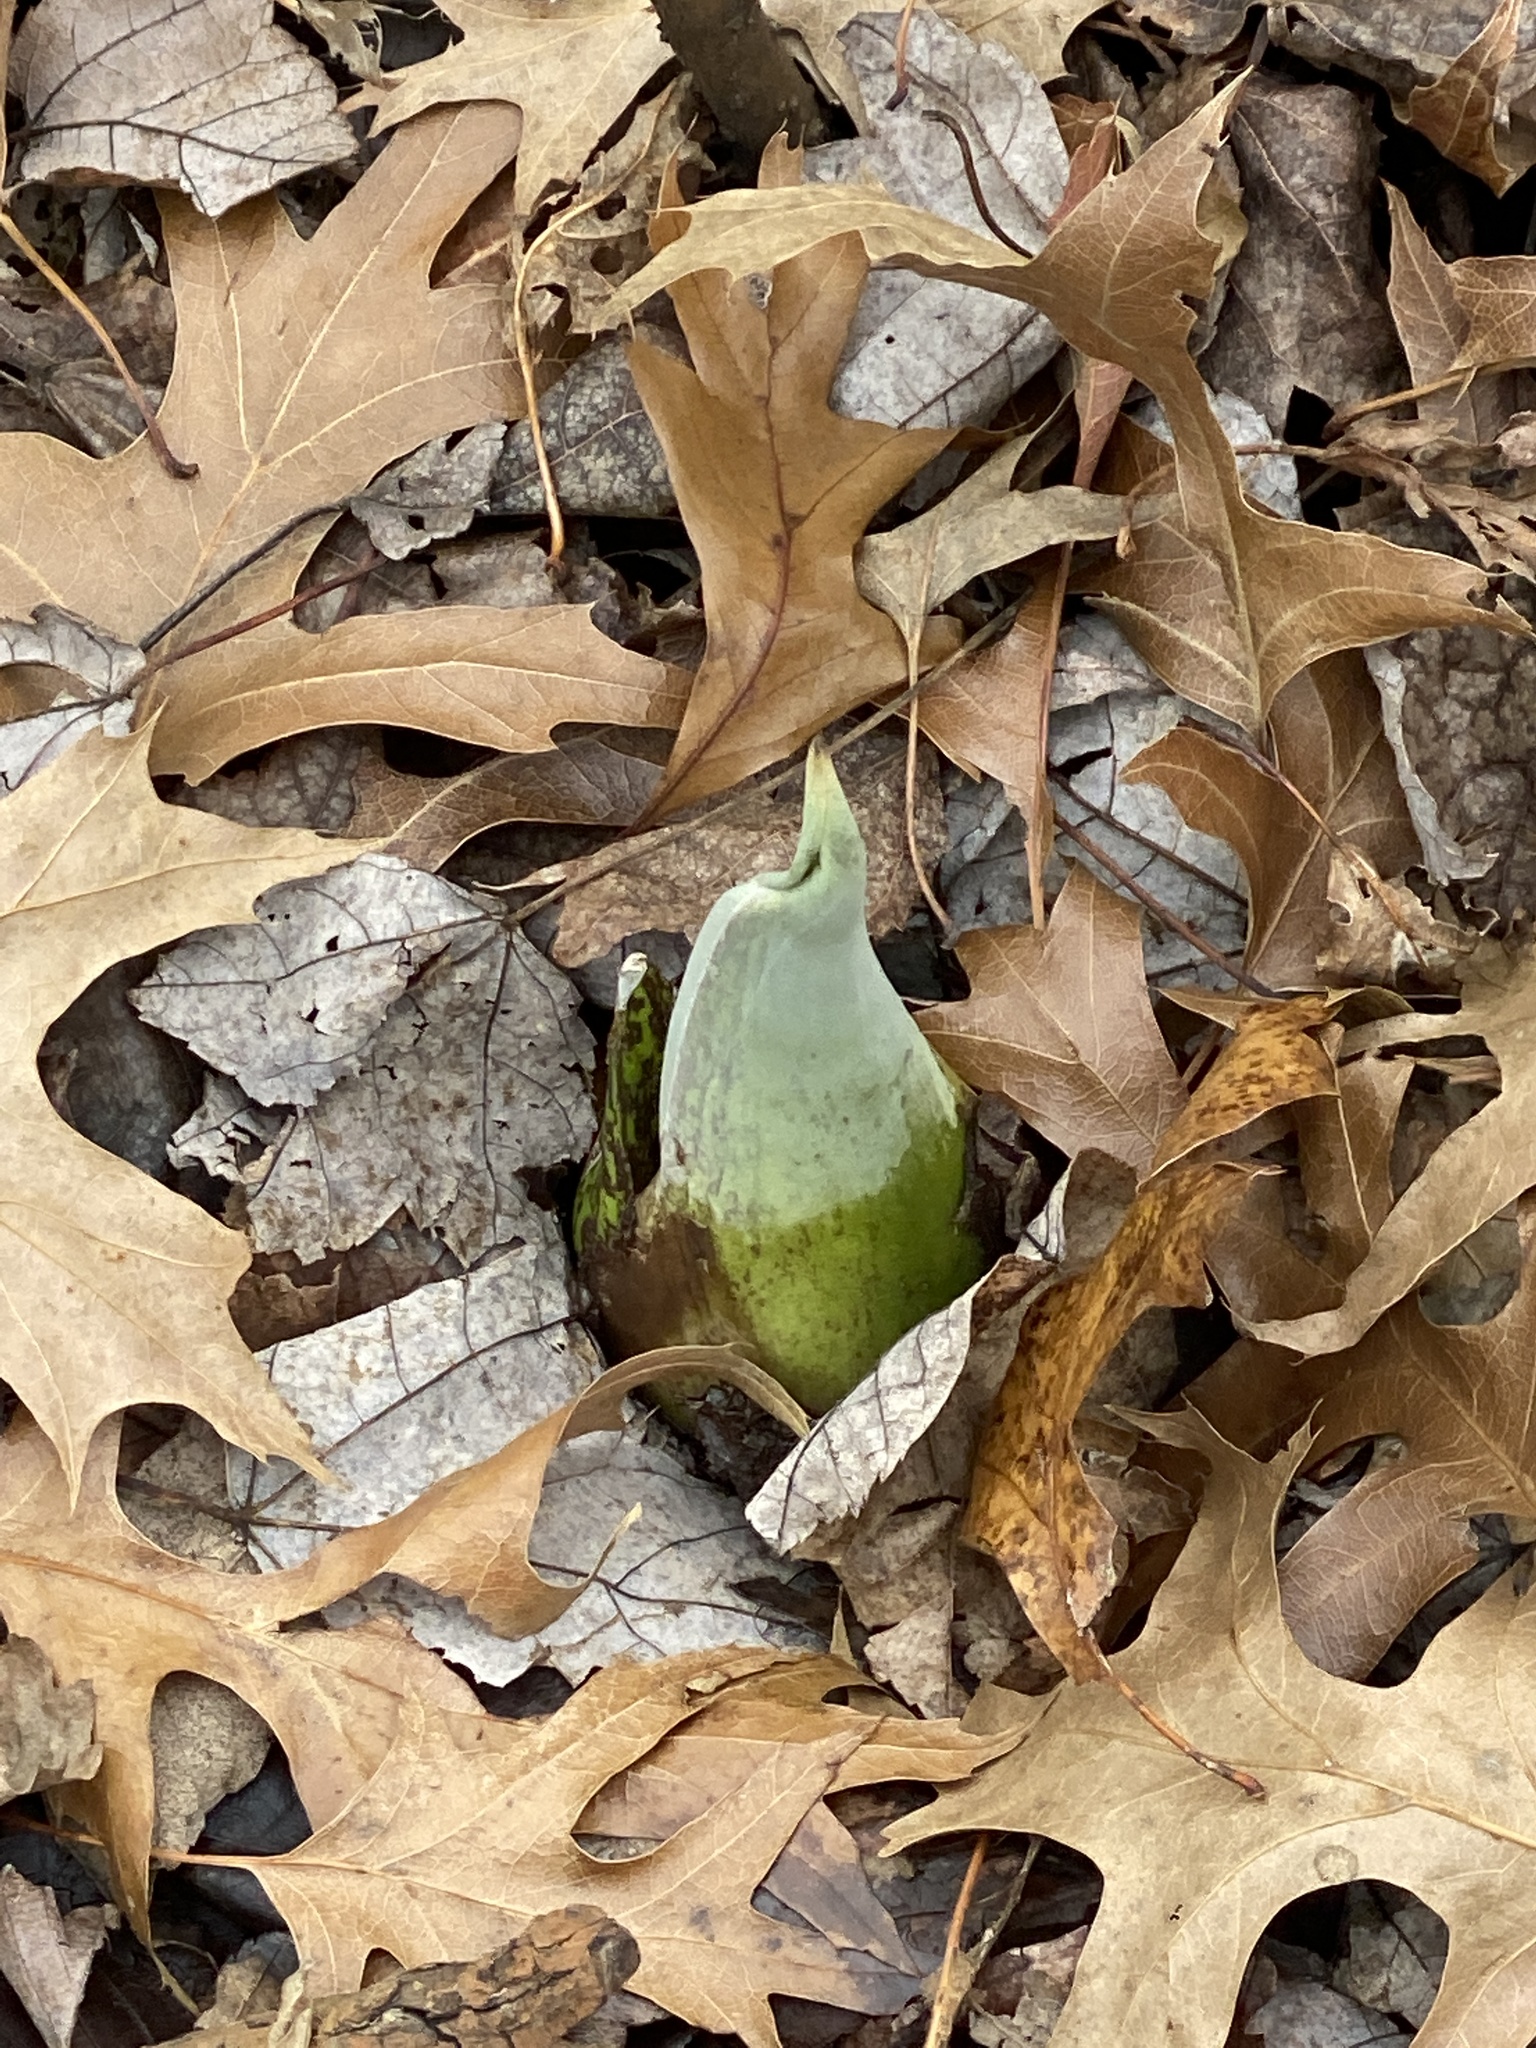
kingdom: Plantae
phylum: Tracheophyta
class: Liliopsida
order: Alismatales
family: Araceae
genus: Symplocarpus
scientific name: Symplocarpus foetidus
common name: Eastern skunk cabbage
